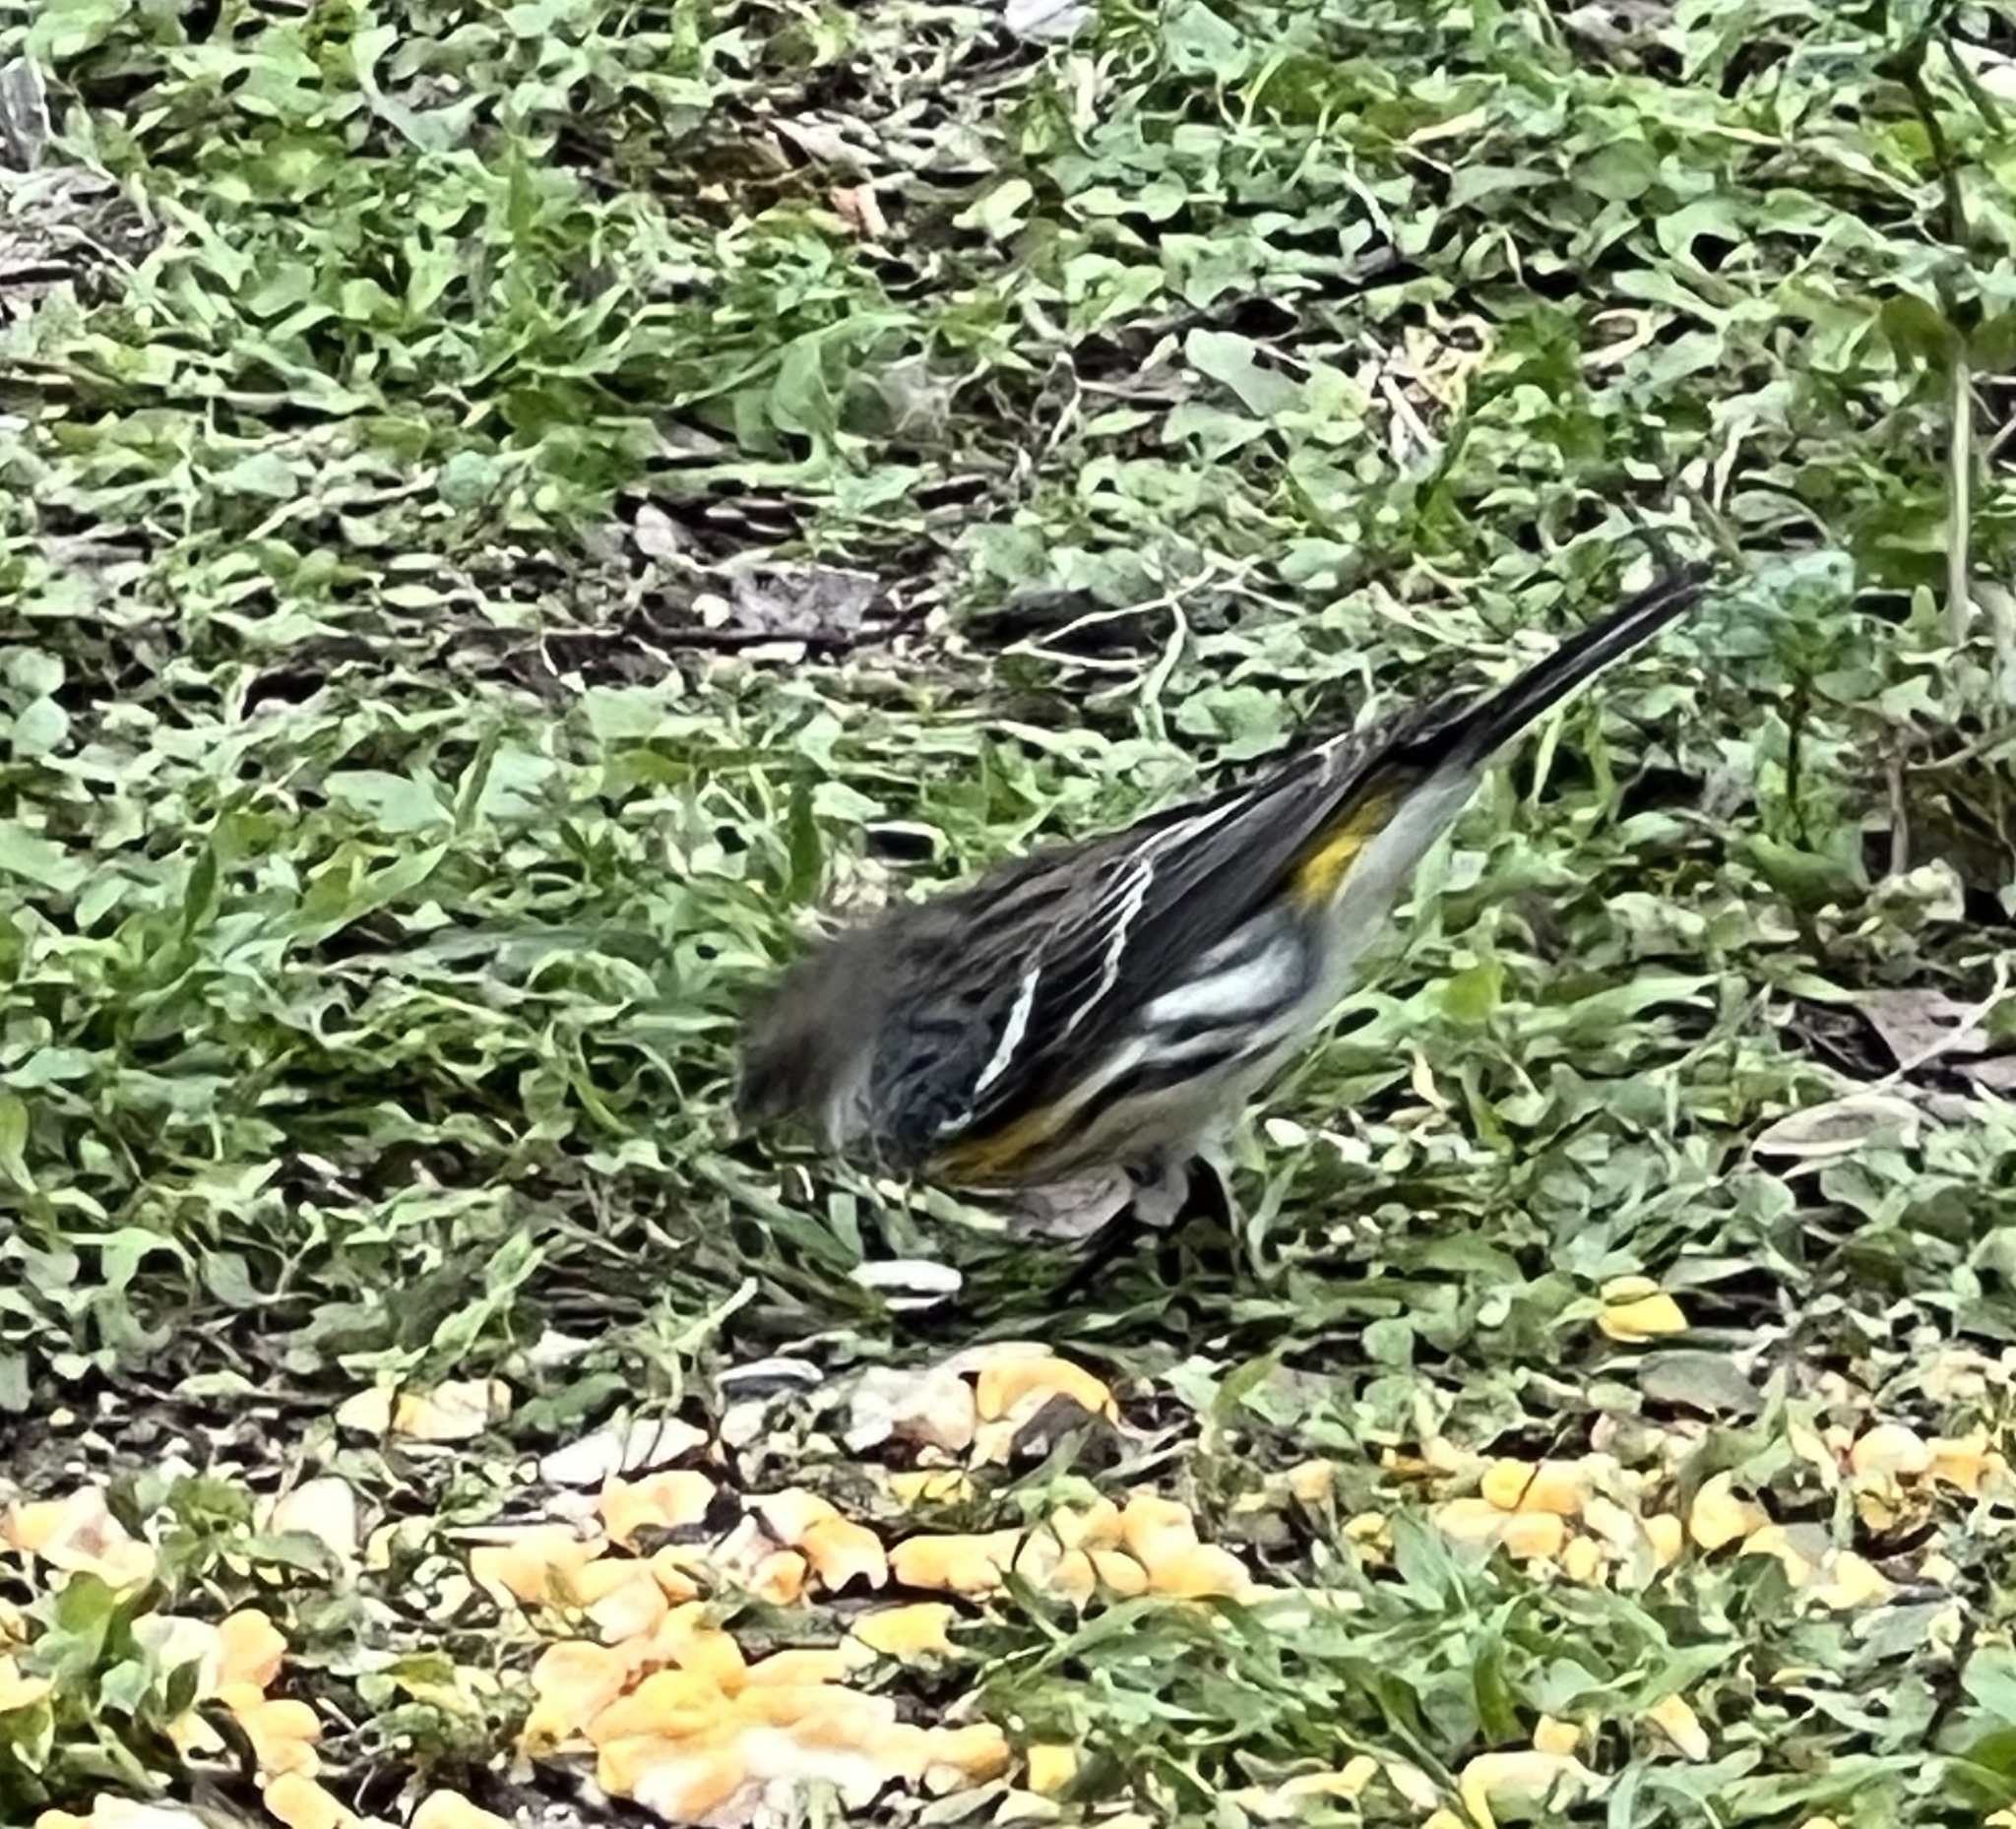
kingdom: Animalia
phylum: Chordata
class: Aves
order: Passeriformes
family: Parulidae
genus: Setophaga
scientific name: Setophaga coronata
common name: Myrtle warbler
